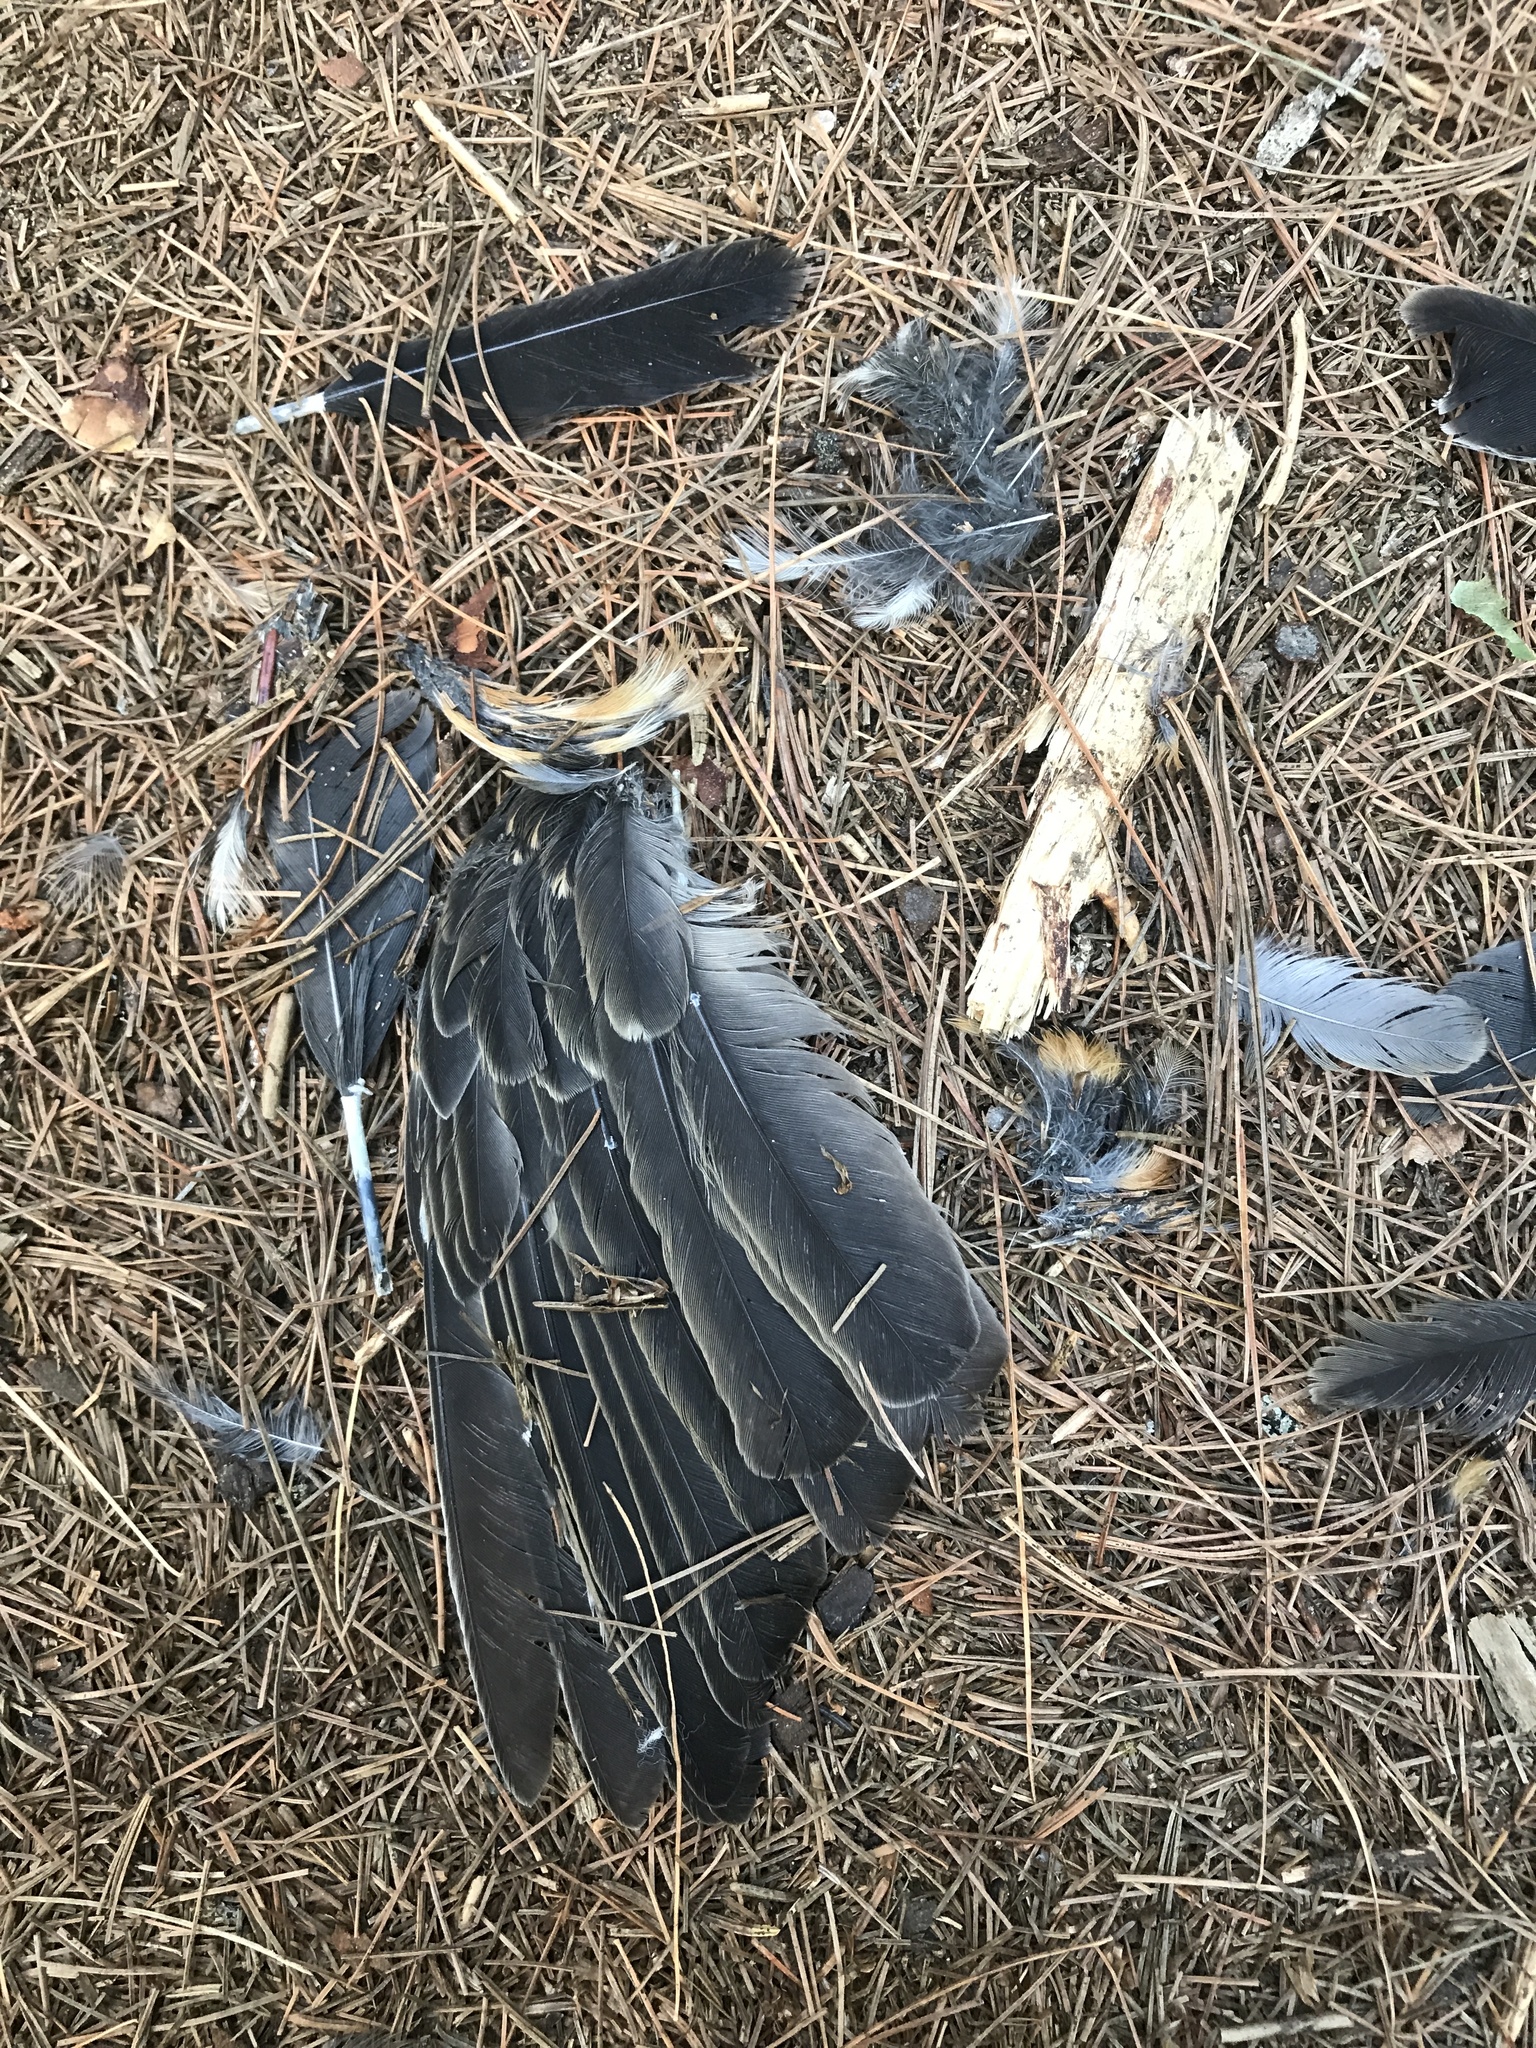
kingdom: Animalia
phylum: Chordata
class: Aves
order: Passeriformes
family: Turdidae
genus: Turdus
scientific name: Turdus migratorius
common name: American robin
